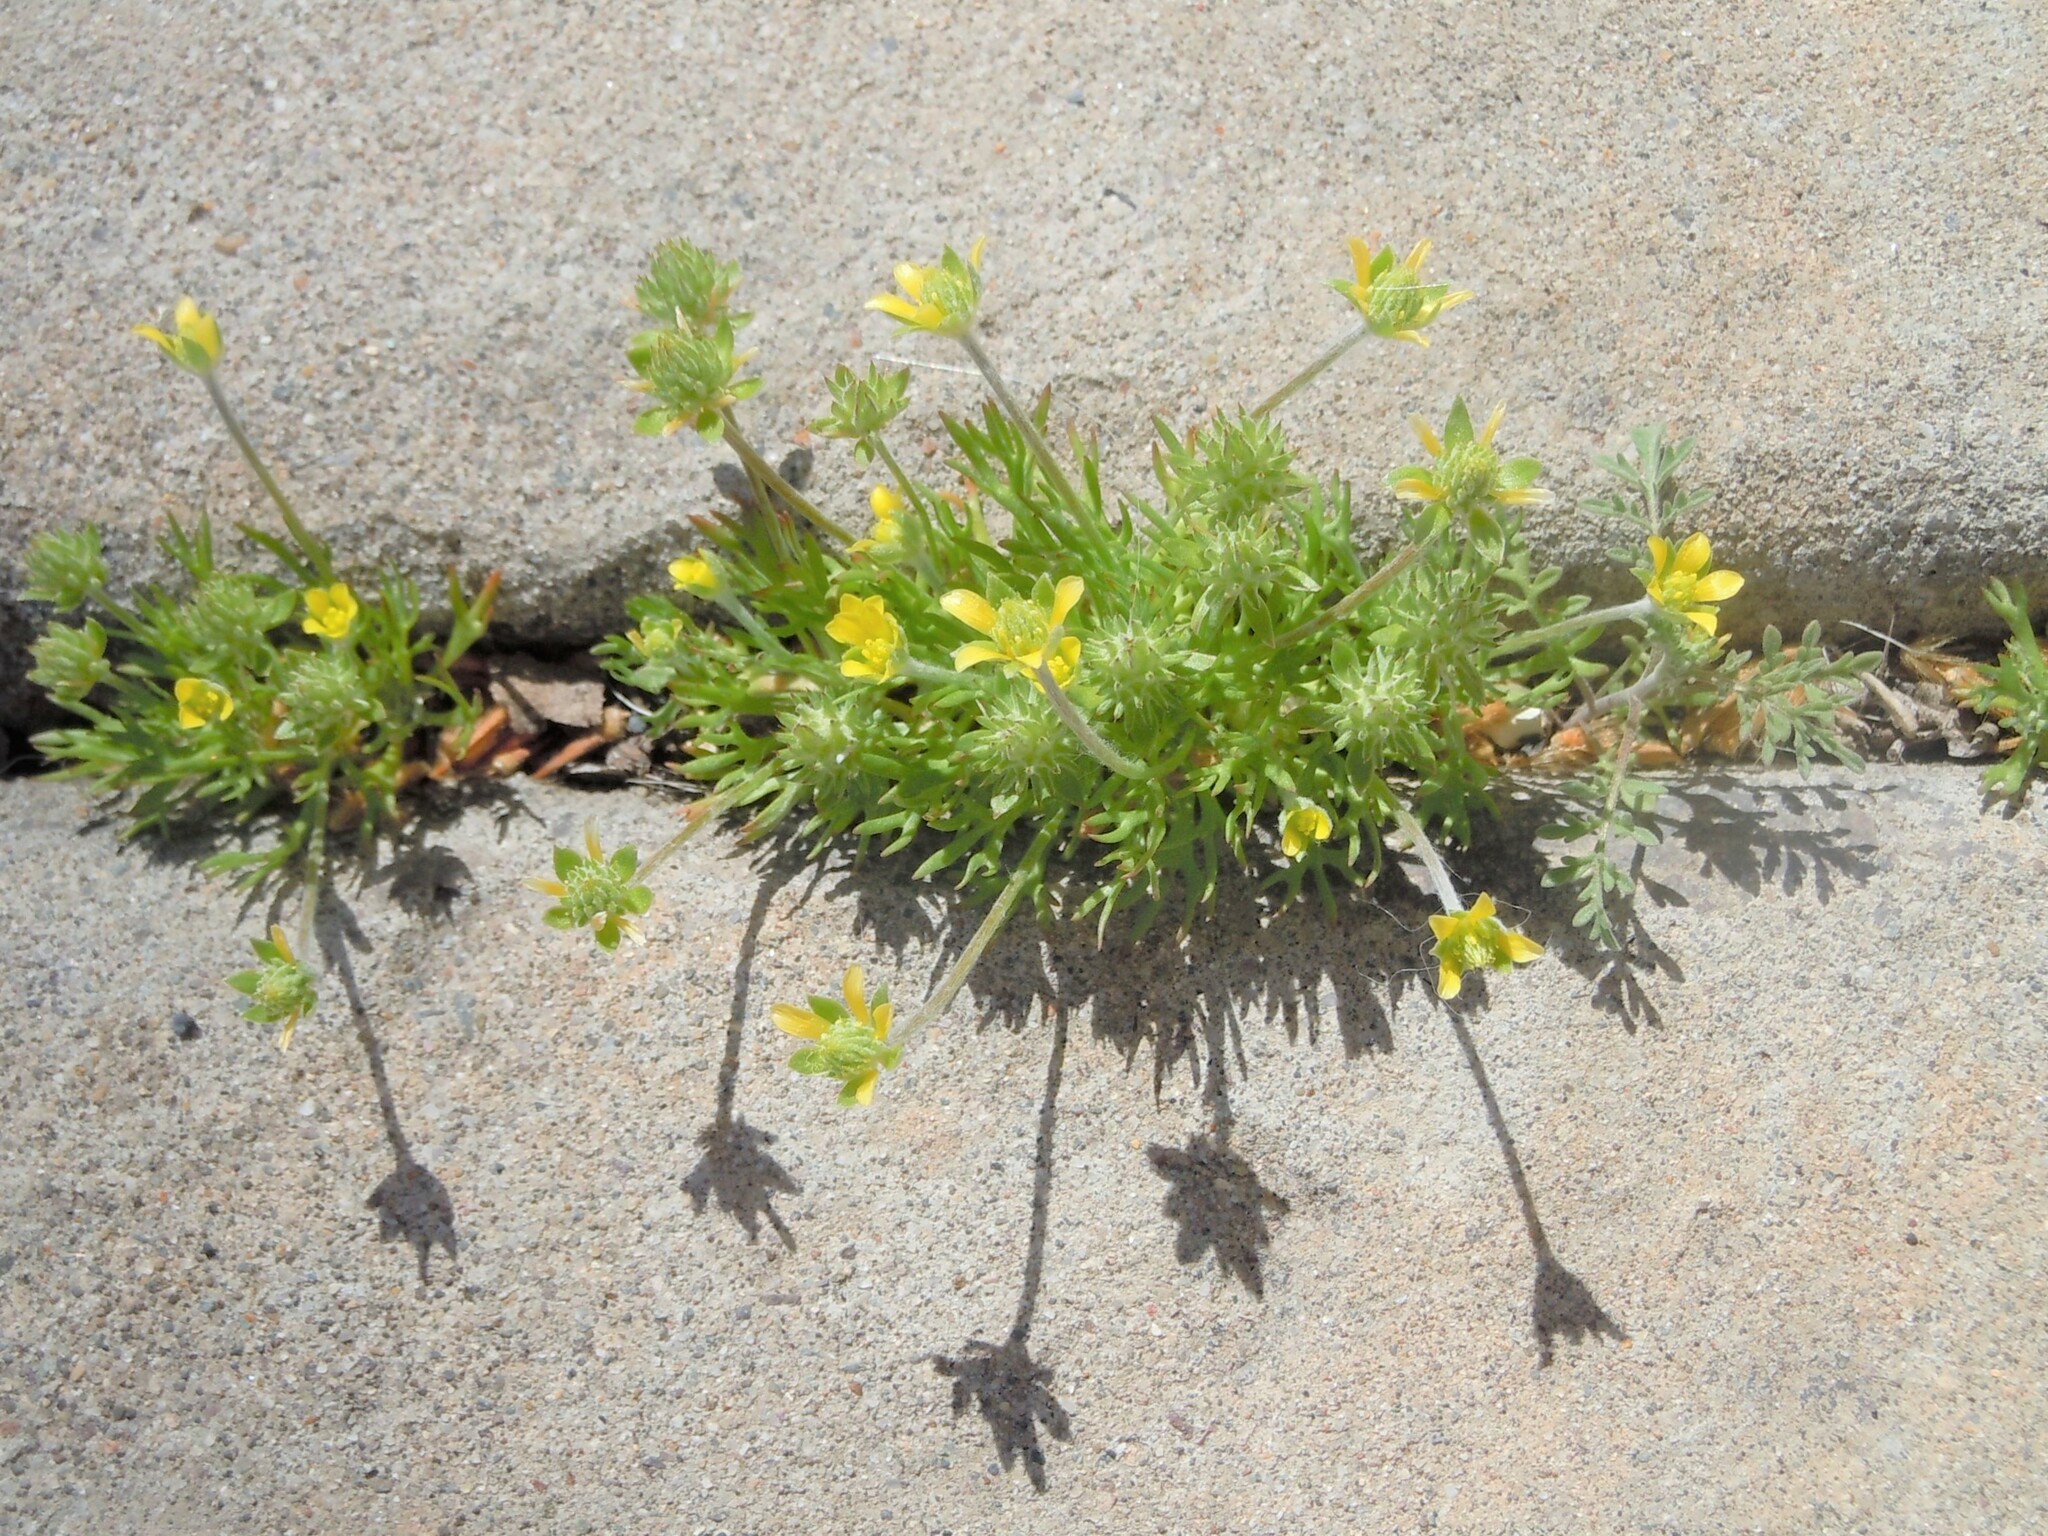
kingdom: Plantae
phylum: Tracheophyta
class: Magnoliopsida
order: Ranunculales
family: Ranunculaceae
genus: Ceratocephala
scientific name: Ceratocephala orthoceras
